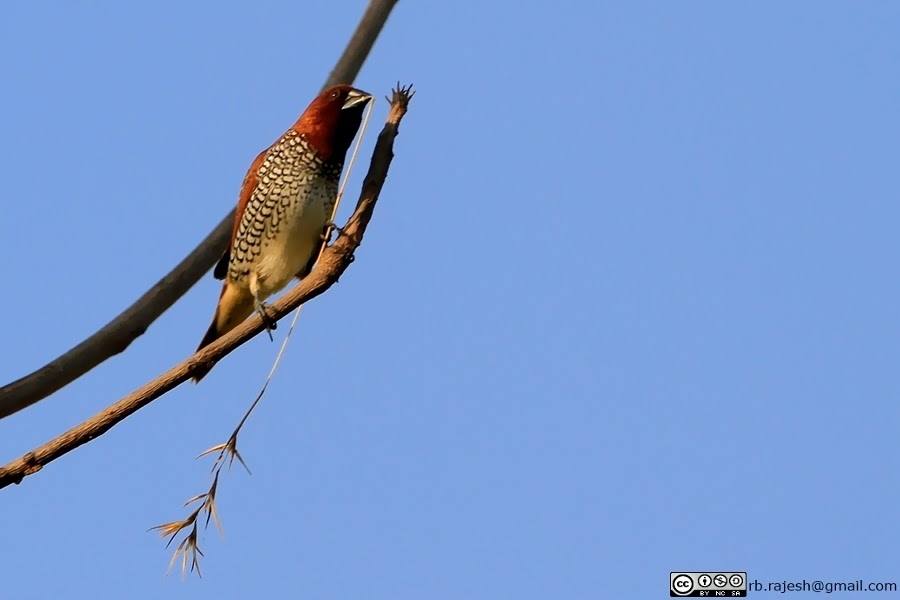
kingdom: Animalia
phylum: Chordata
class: Aves
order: Passeriformes
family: Estrildidae
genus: Lonchura
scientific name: Lonchura punctulata
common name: Scaly-breasted munia
